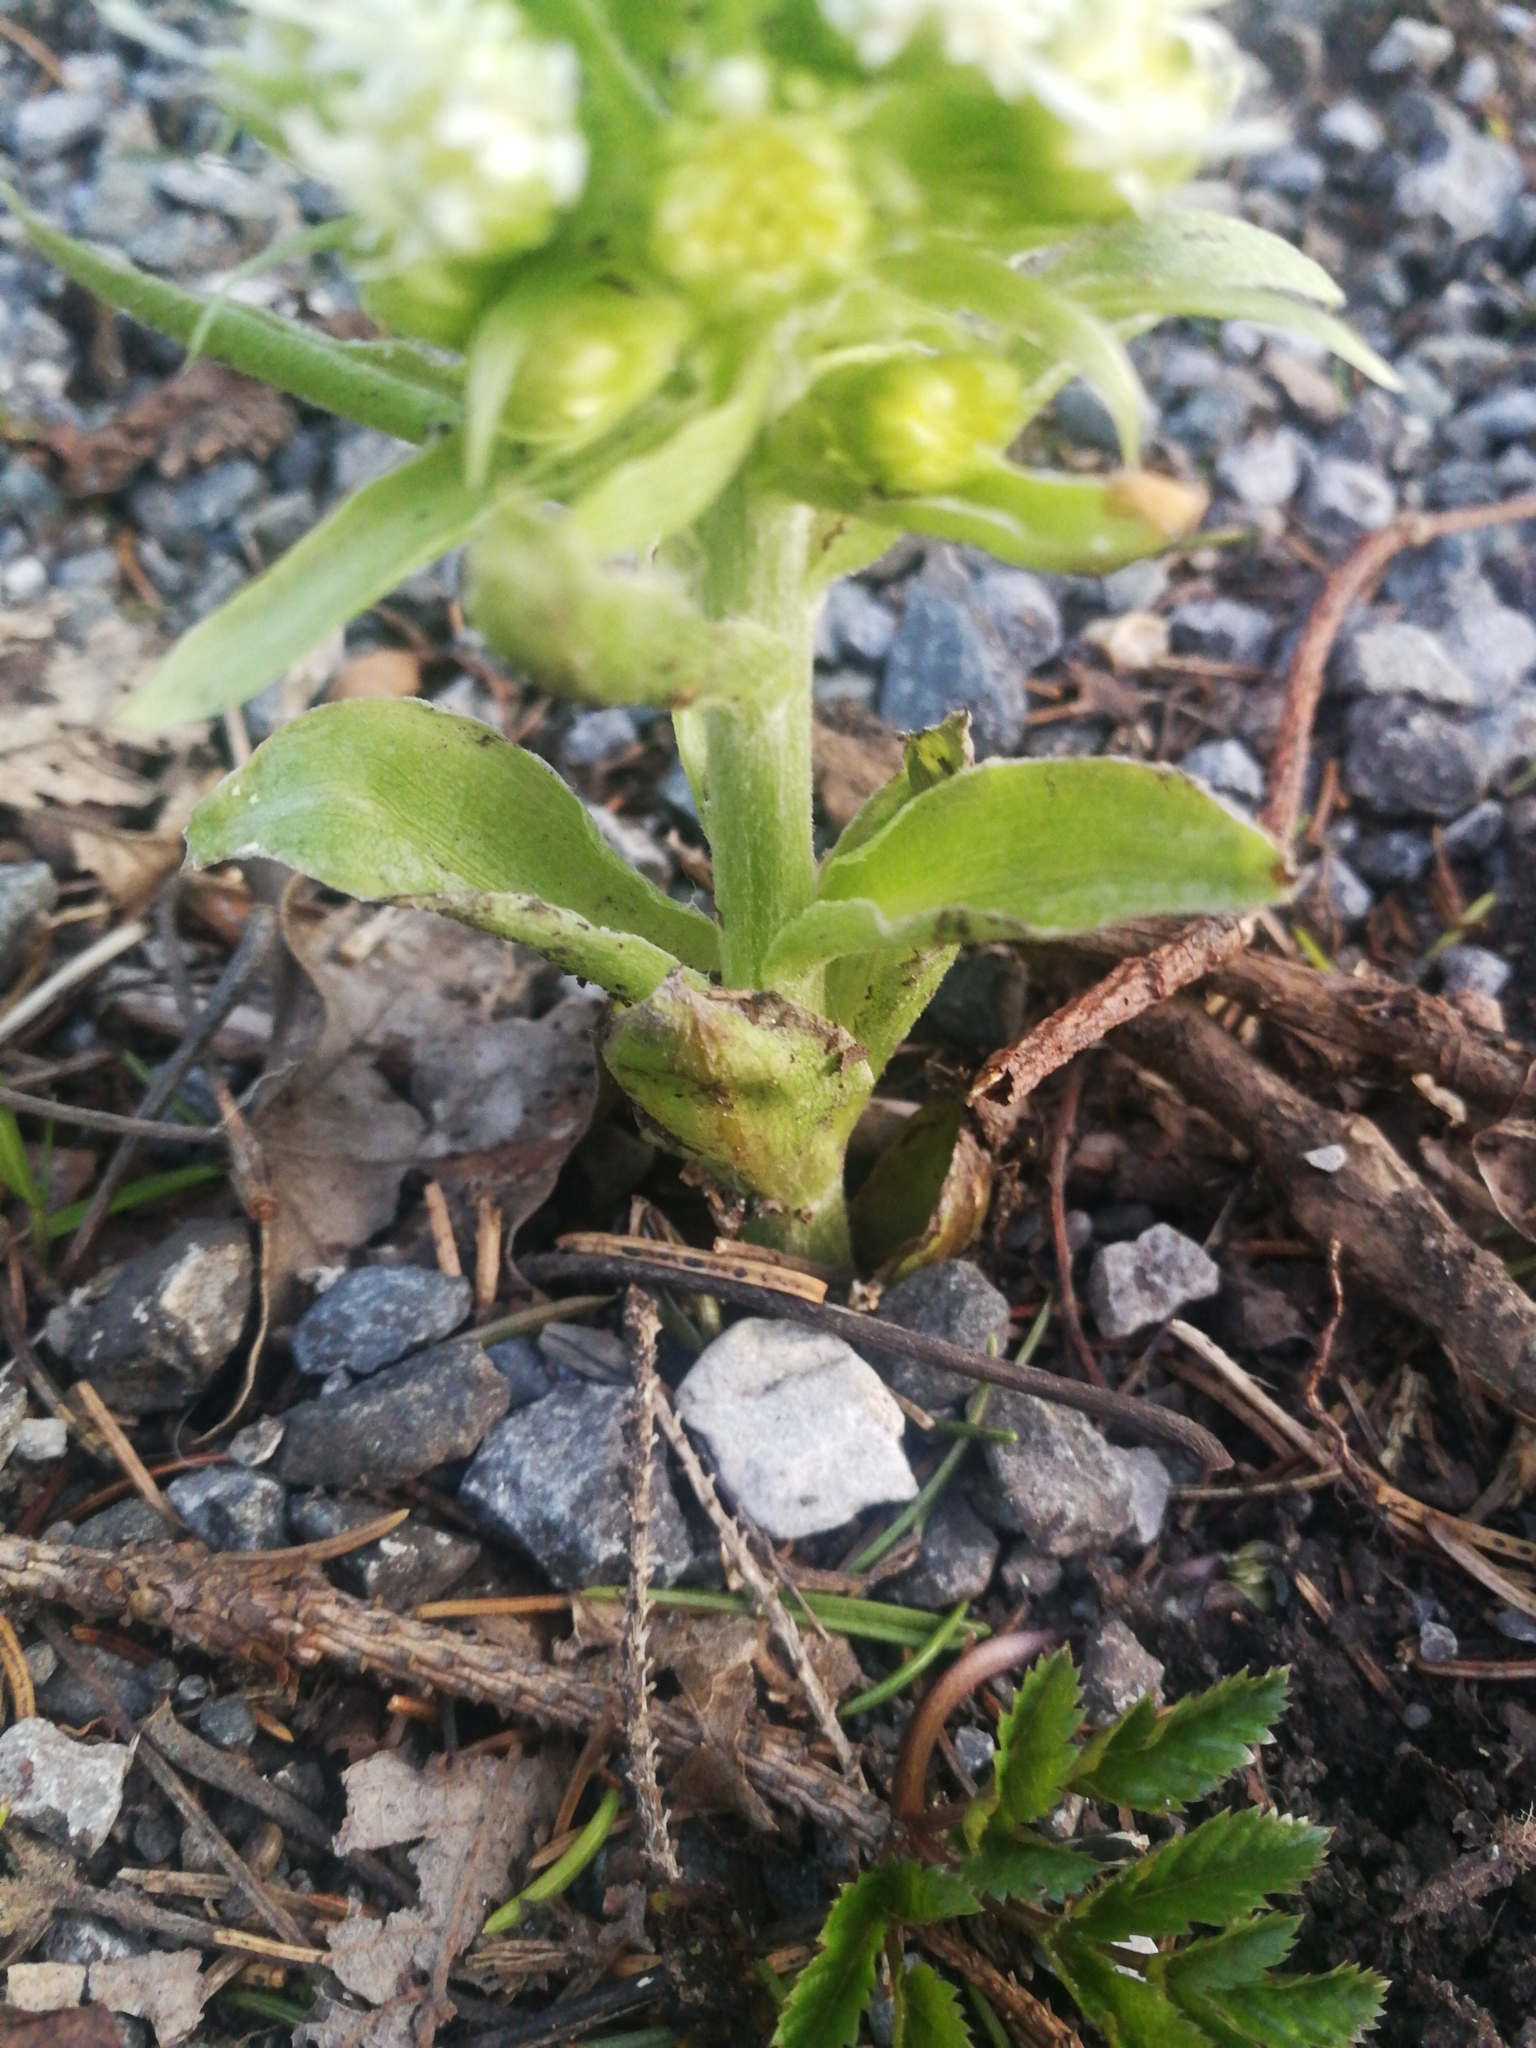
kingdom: Plantae
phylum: Tracheophyta
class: Magnoliopsida
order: Asterales
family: Asteraceae
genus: Petasites
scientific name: Petasites albus
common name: White butterbur
